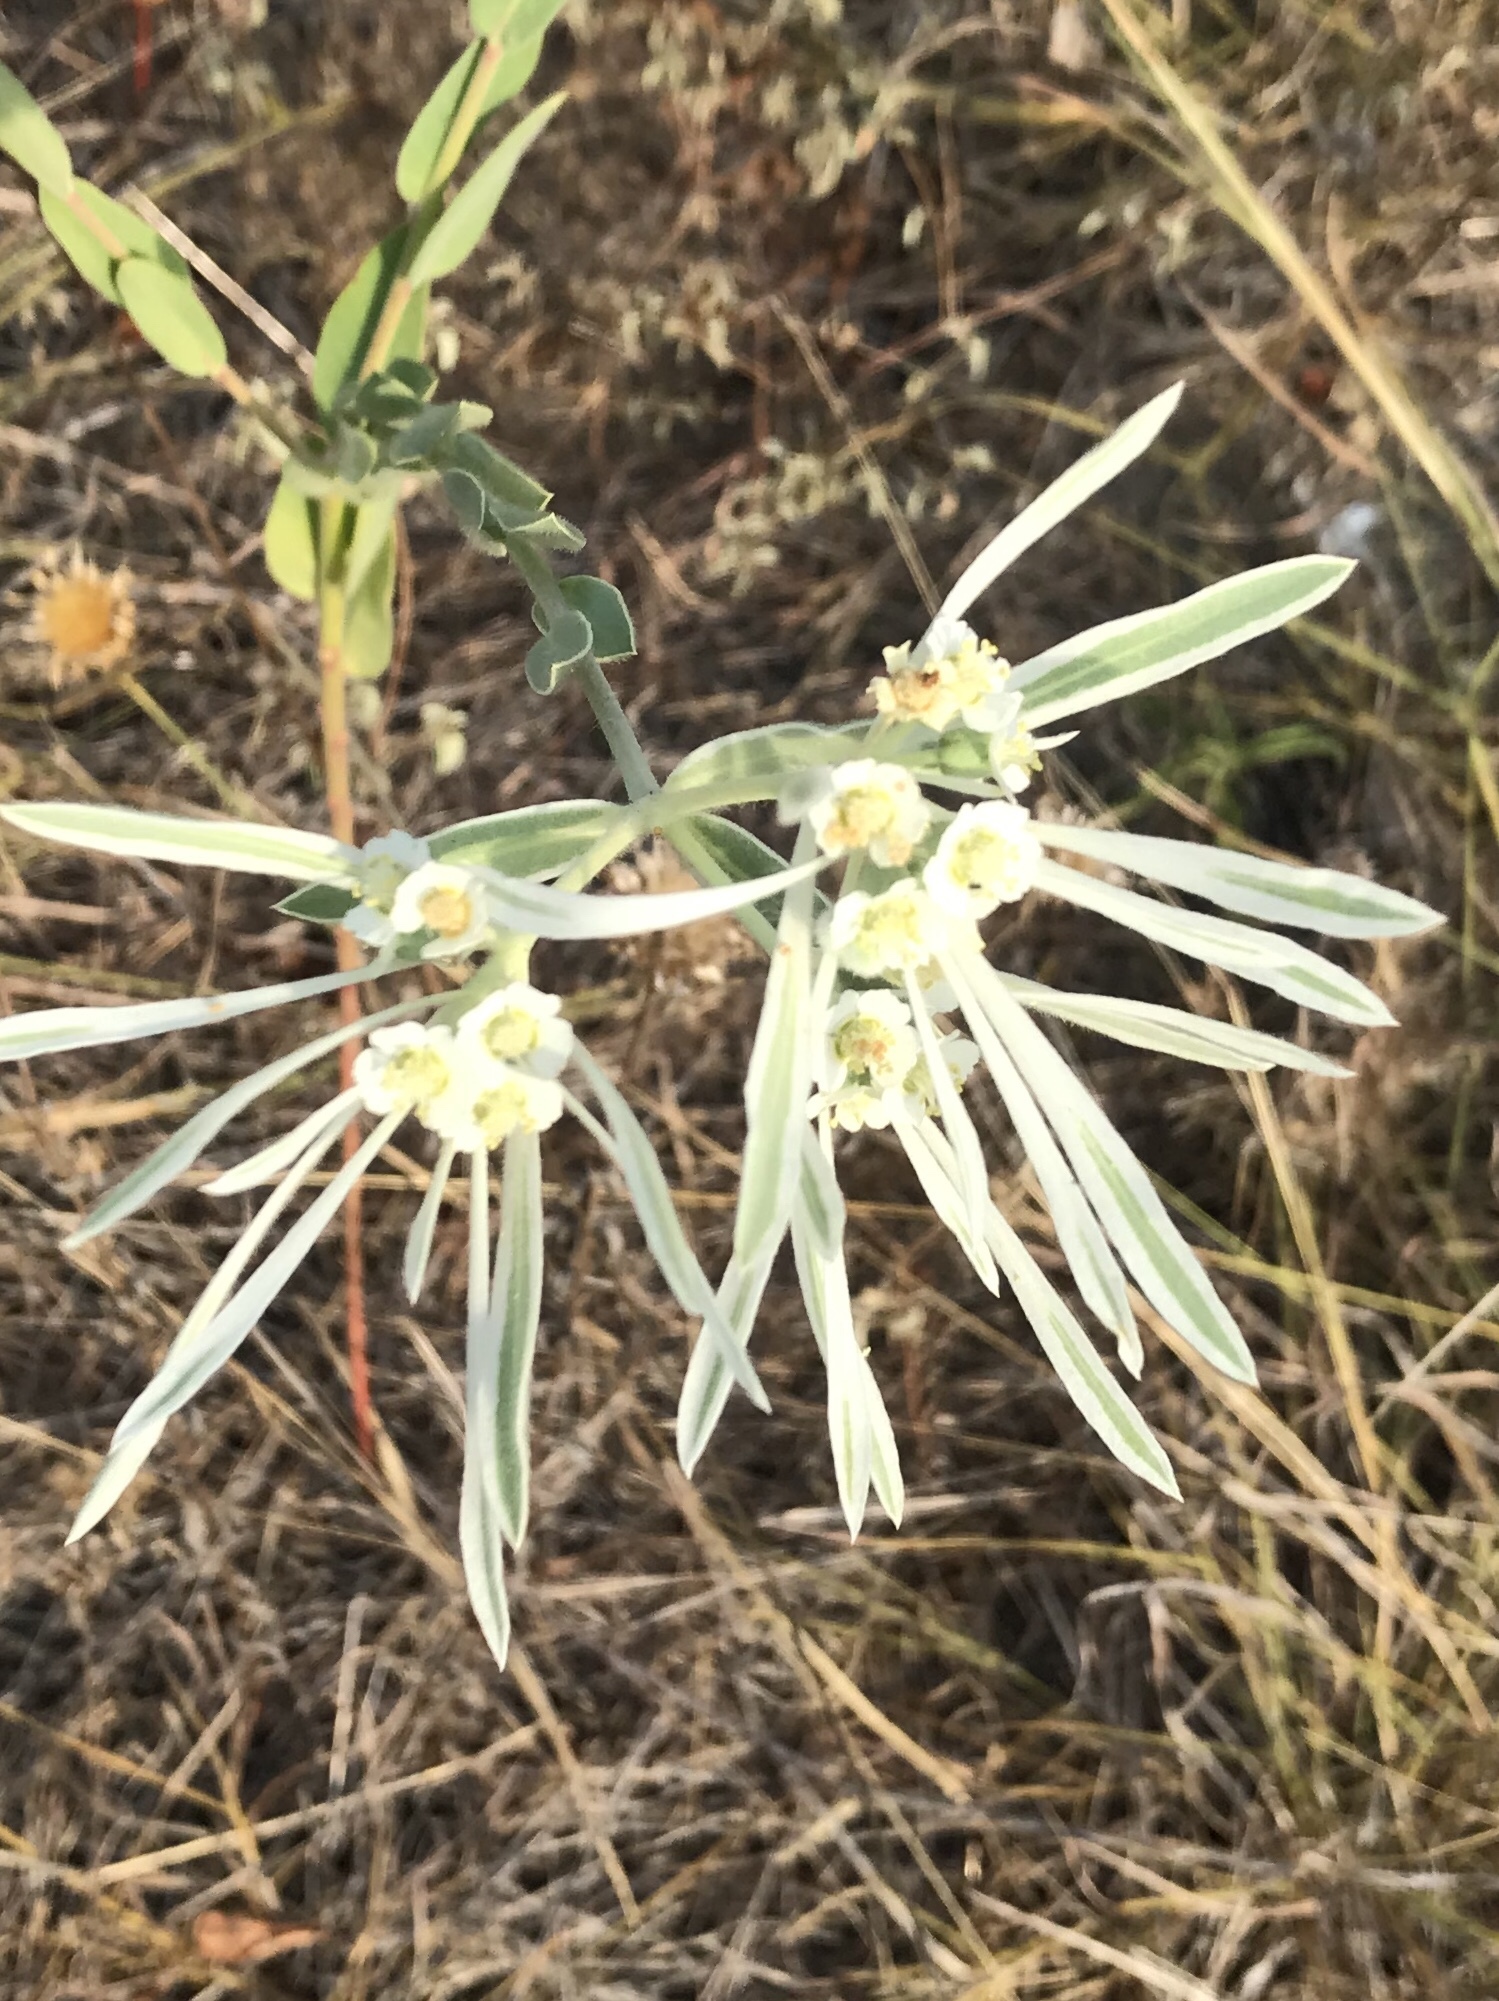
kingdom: Plantae
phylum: Tracheophyta
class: Magnoliopsida
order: Malpighiales
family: Euphorbiaceae
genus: Euphorbia
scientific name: Euphorbia bicolor
